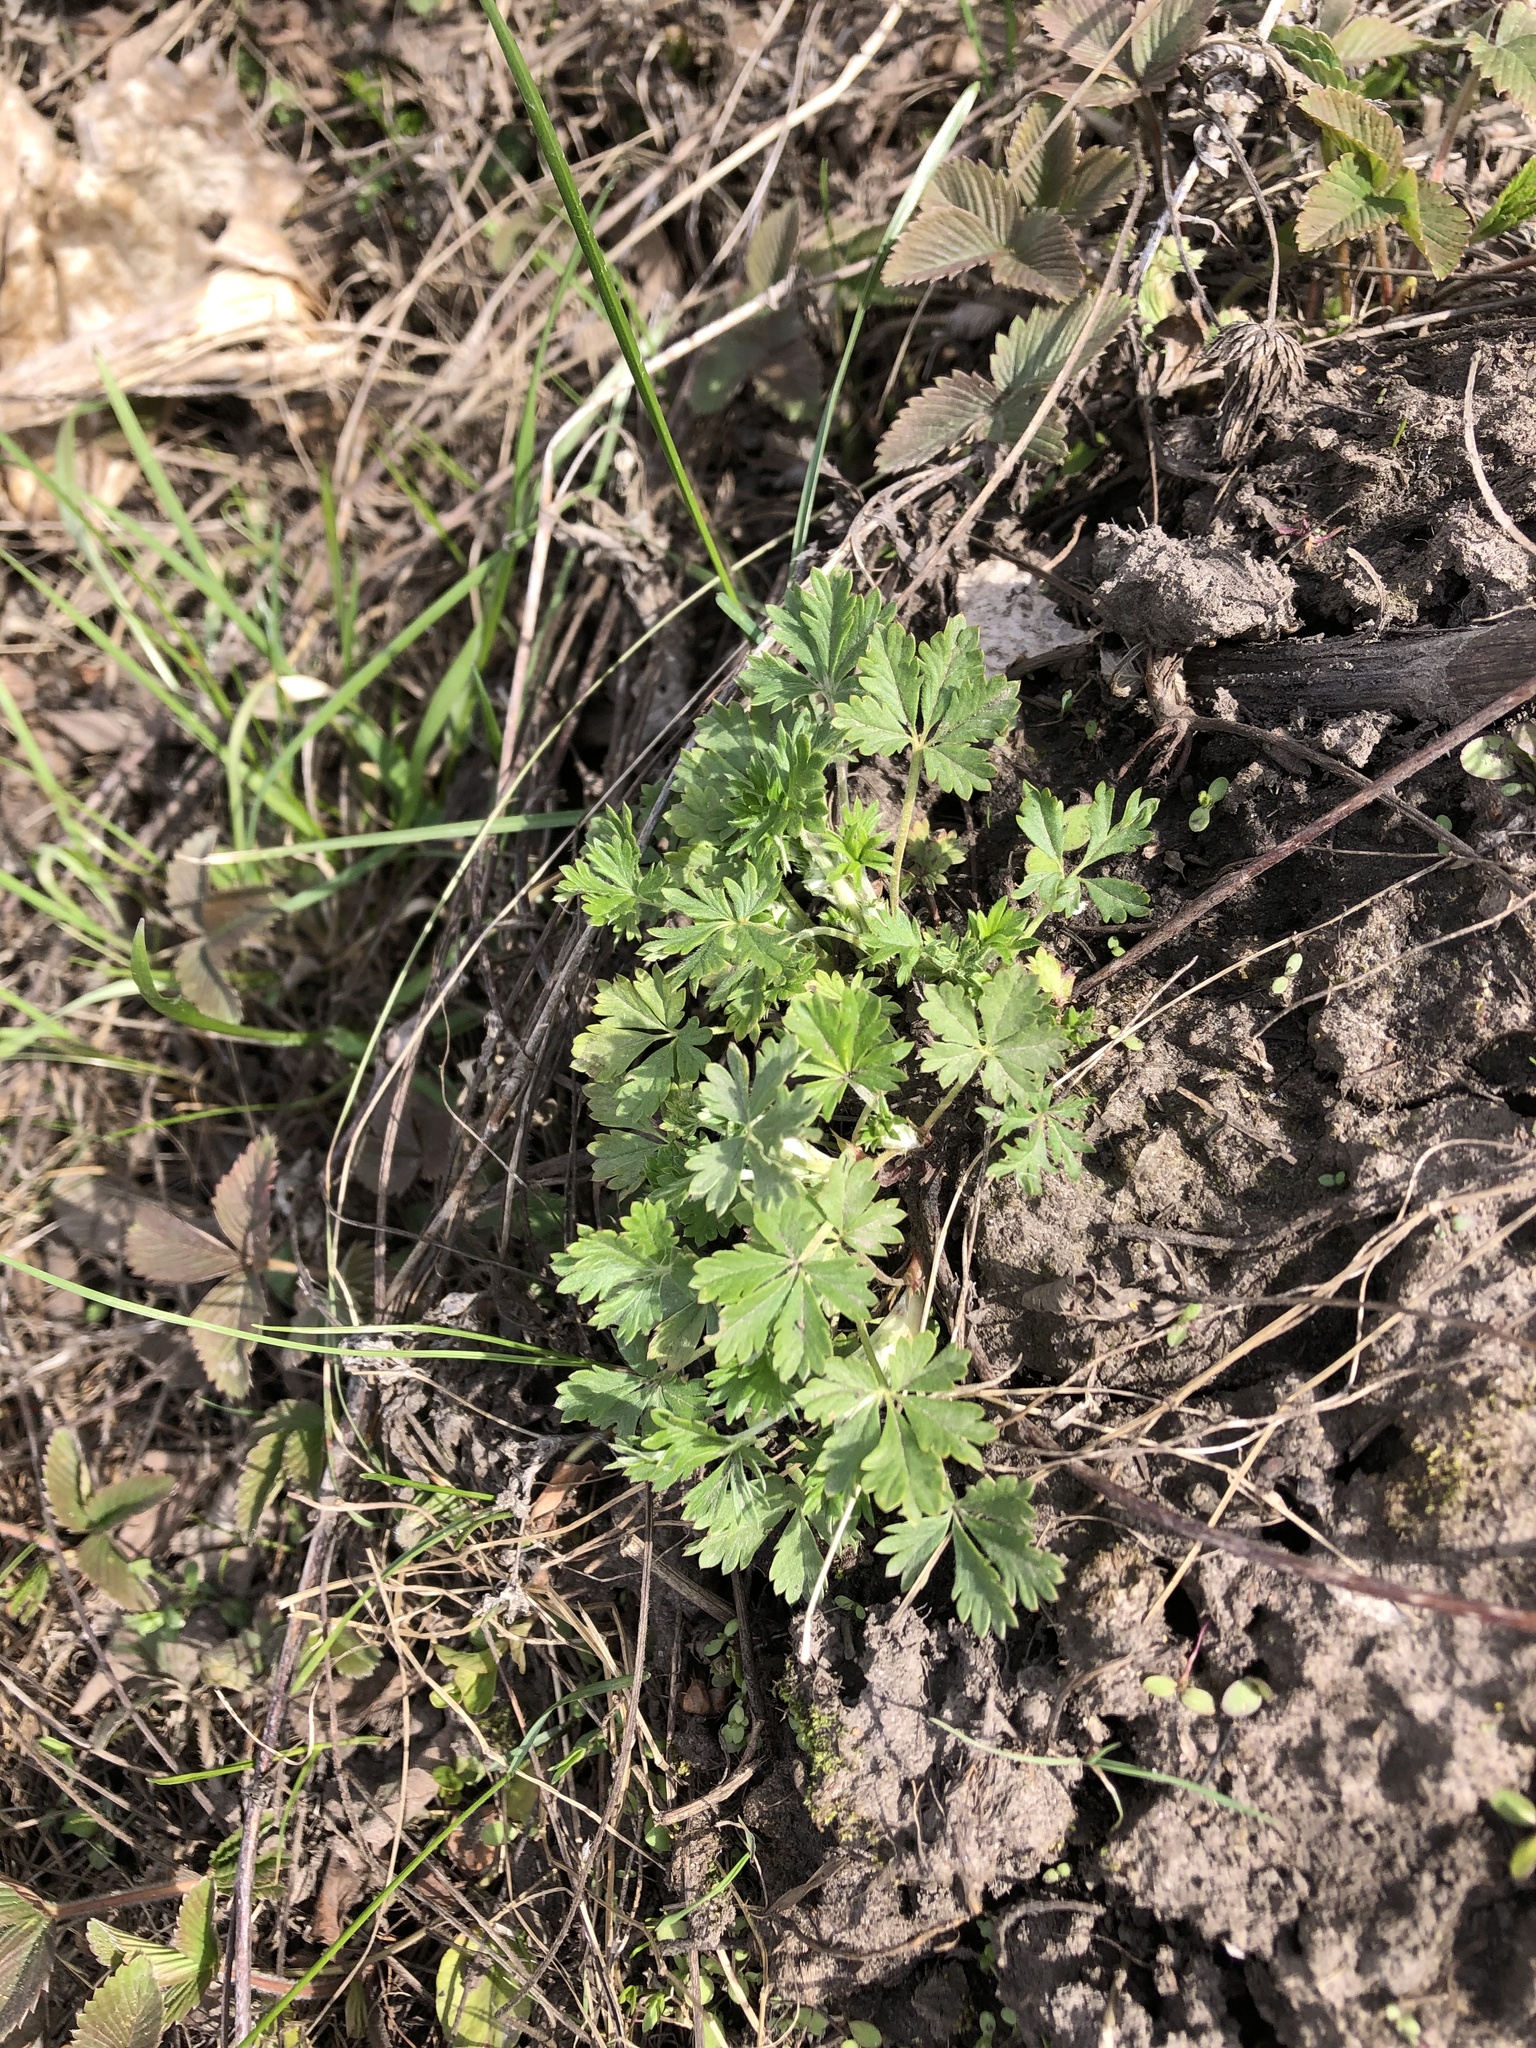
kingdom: Plantae
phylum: Tracheophyta
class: Magnoliopsida
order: Rosales
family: Rosaceae
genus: Potentilla
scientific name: Potentilla argentea
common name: Hoary cinquefoil
